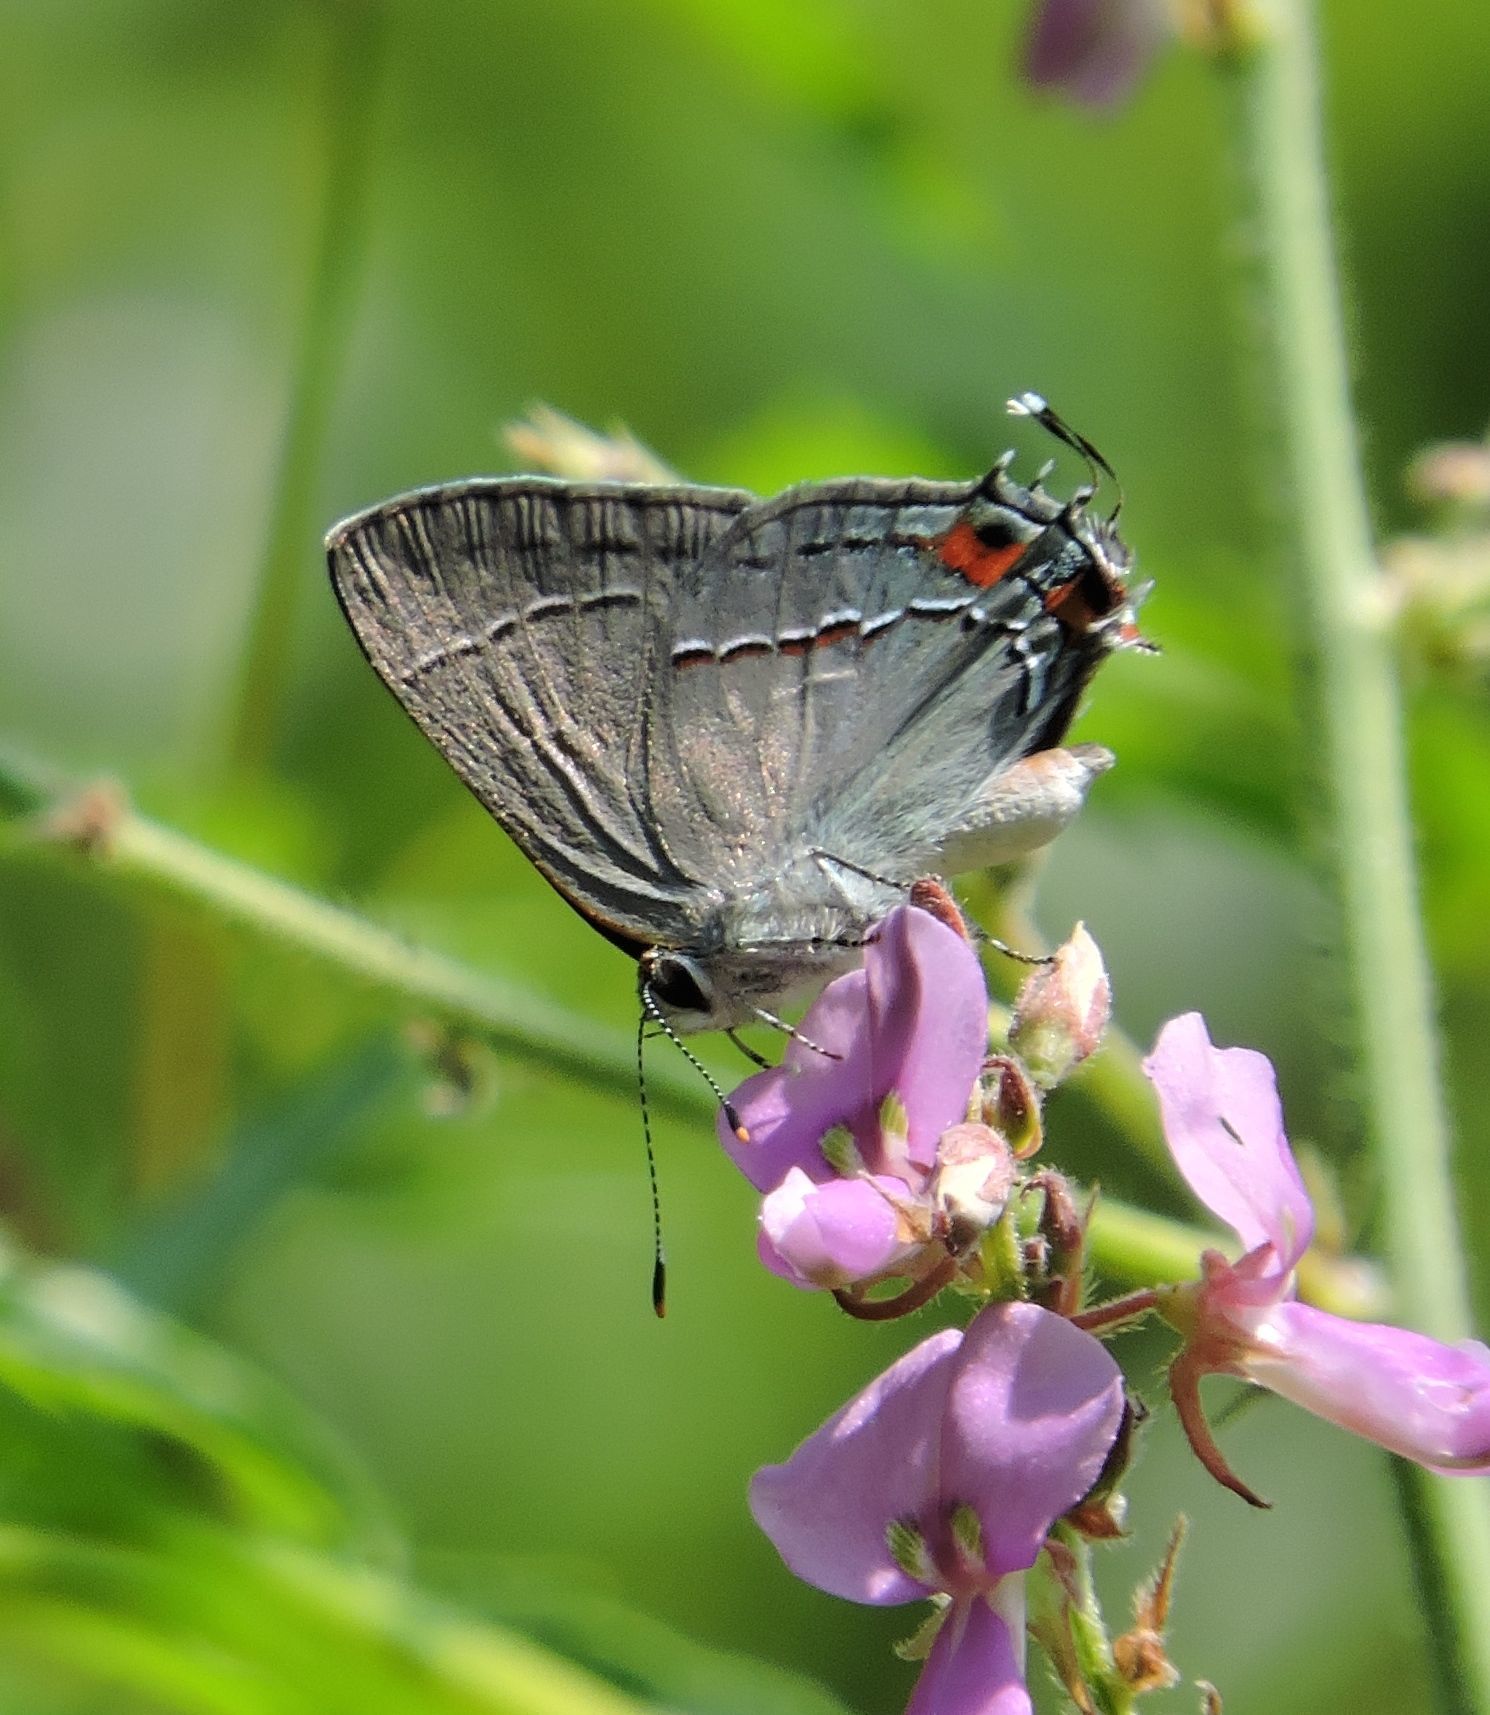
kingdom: Animalia
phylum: Arthropoda
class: Insecta
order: Lepidoptera
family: Lycaenidae
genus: Strymon
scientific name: Strymon melinus
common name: Gray hairstreak
